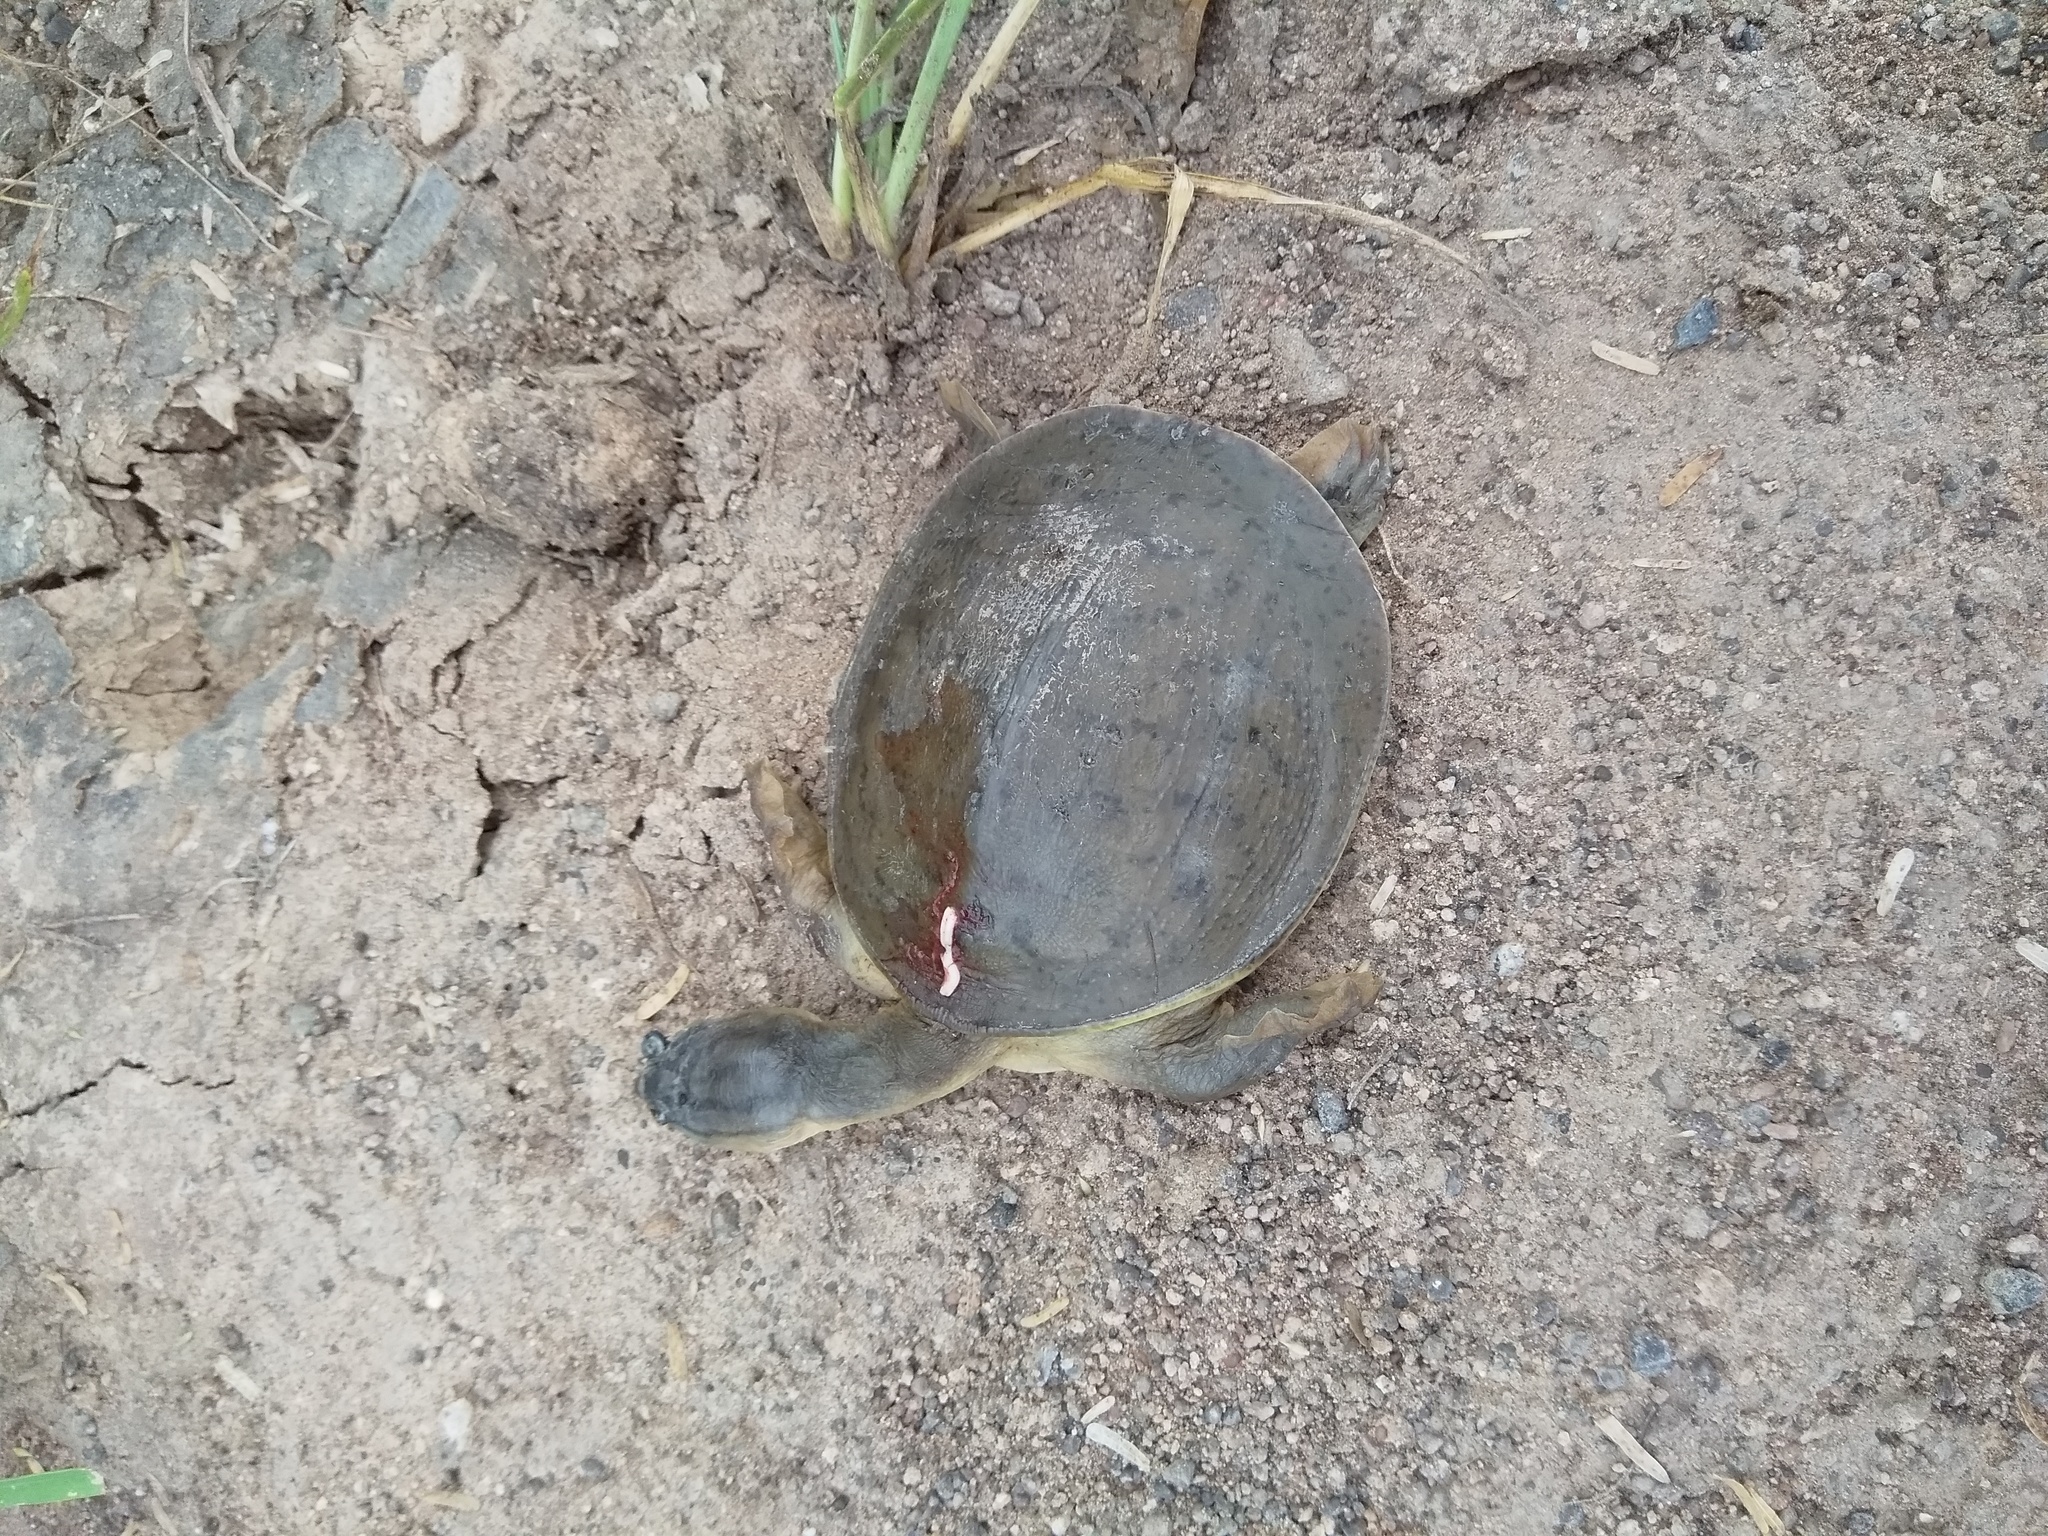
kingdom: Animalia
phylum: Chordata
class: Testudines
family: Trionychidae
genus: Lissemys
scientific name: Lissemys punctata
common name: Indian flap-shelled turtle
